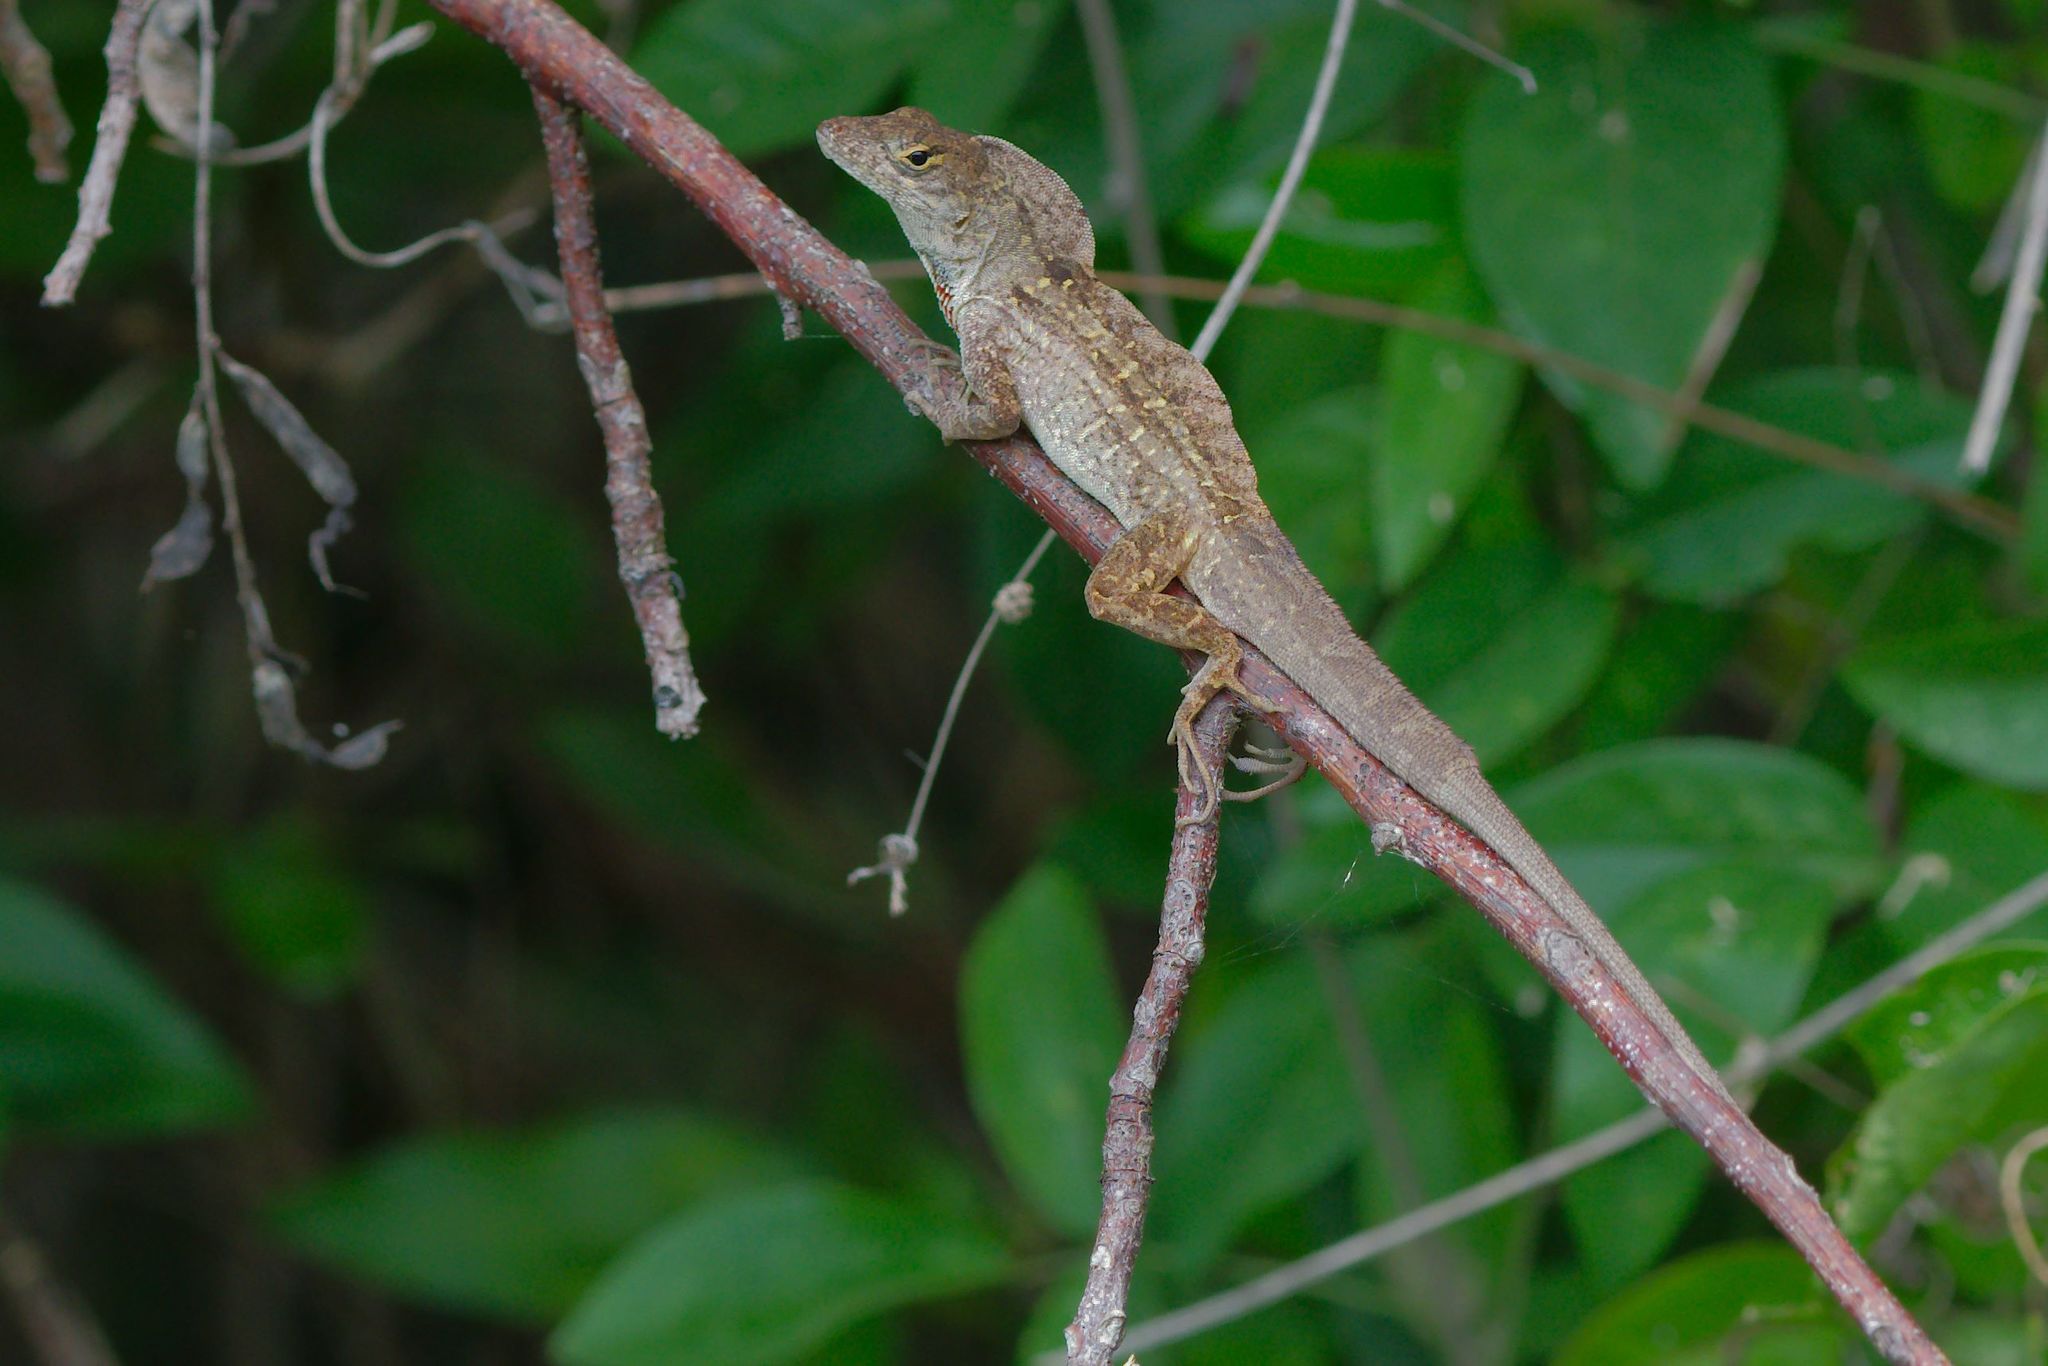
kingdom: Animalia
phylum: Chordata
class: Squamata
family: Dactyloidae
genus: Anolis
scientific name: Anolis sagrei
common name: Brown anole
